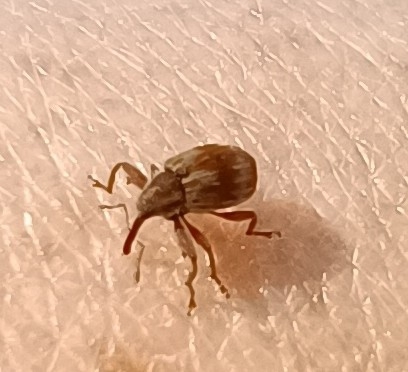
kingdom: Animalia
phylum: Arthropoda
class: Insecta
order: Coleoptera
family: Curculionidae
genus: Anthonomus
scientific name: Anthonomus rectirostris
